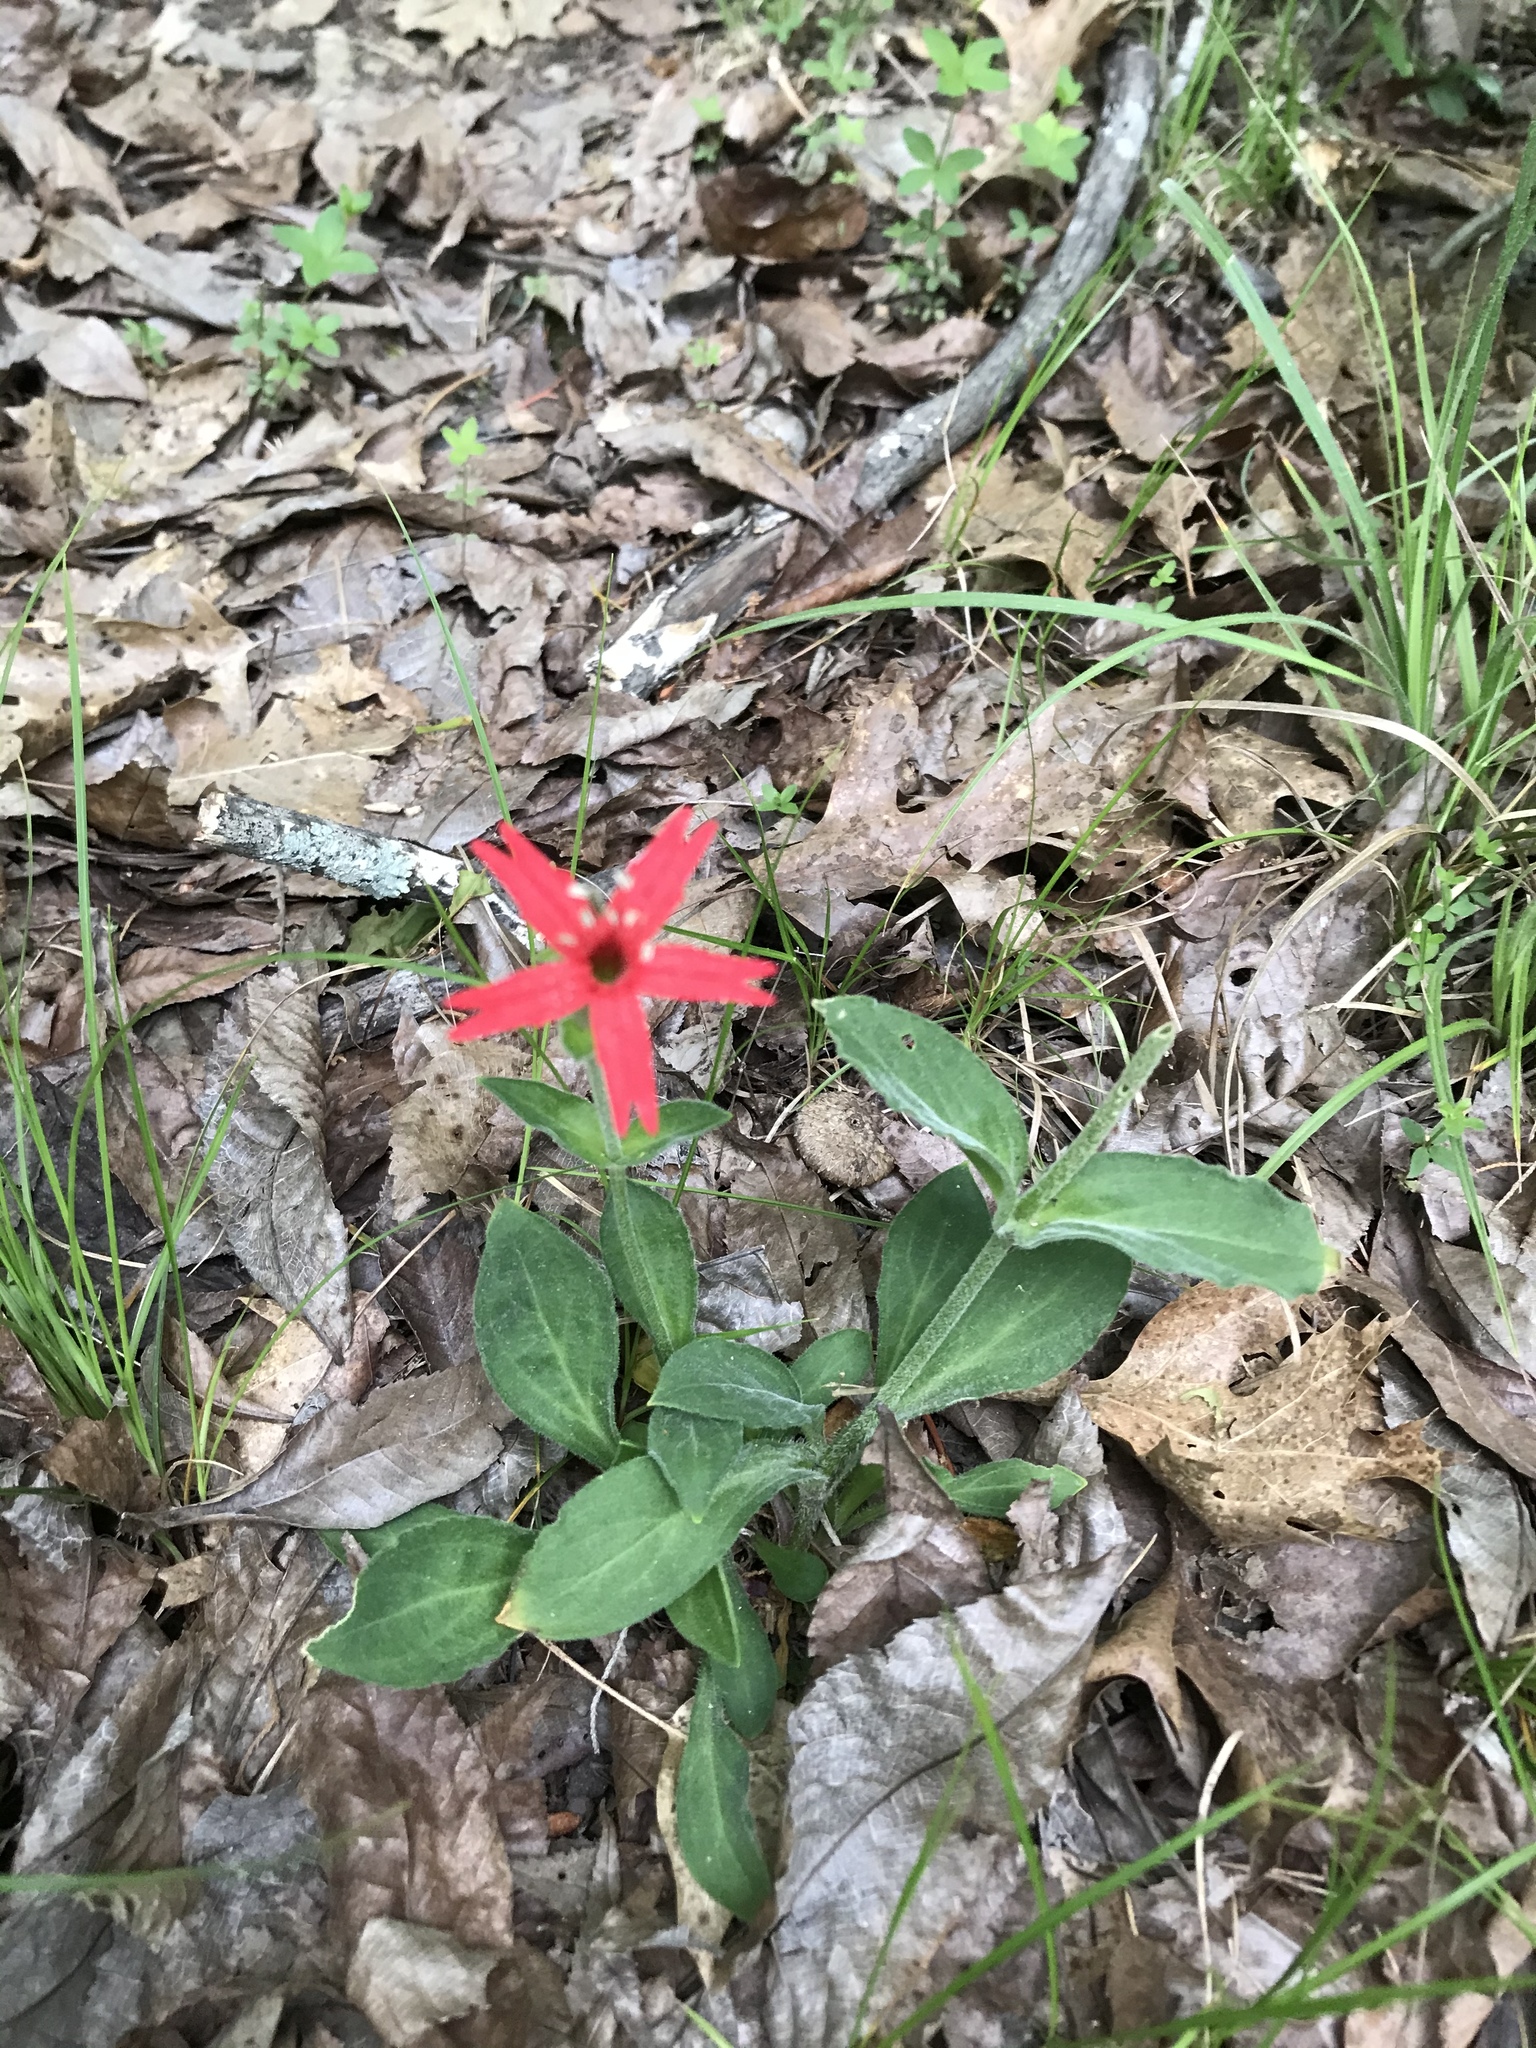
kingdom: Plantae
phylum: Tracheophyta
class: Magnoliopsida
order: Caryophyllales
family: Caryophyllaceae
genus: Silene
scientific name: Silene virginica
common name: Fire-pink
